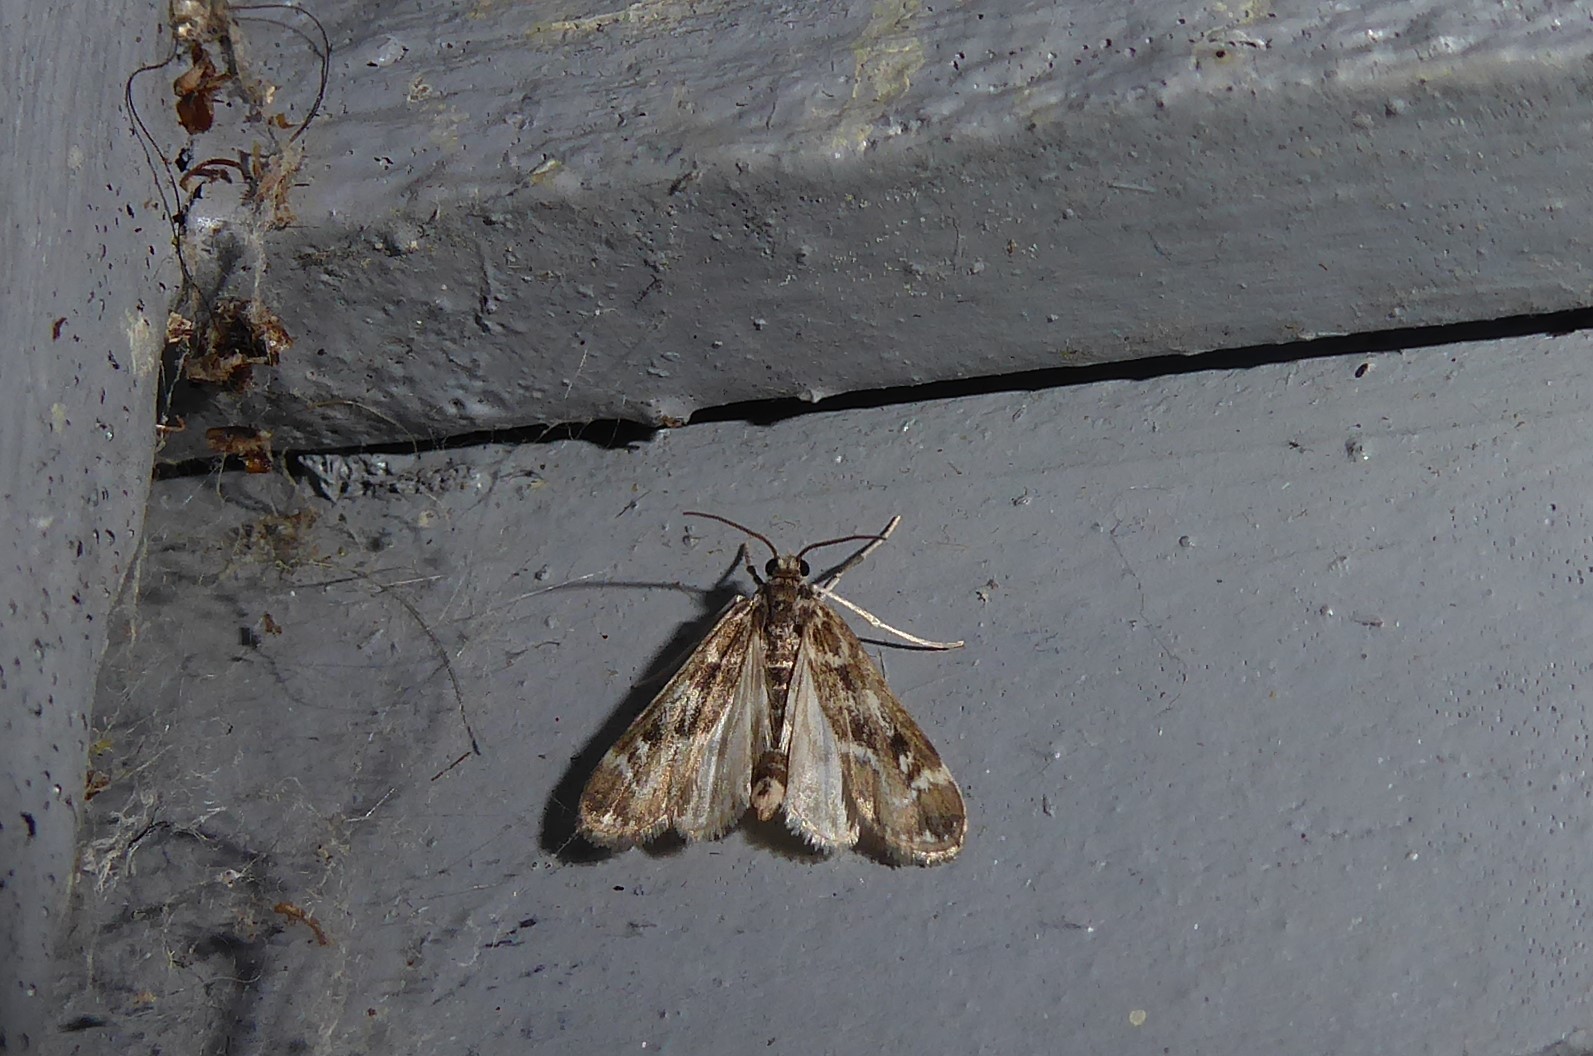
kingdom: Animalia
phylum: Arthropoda
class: Insecta
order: Lepidoptera
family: Crambidae
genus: Hygraula
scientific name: Hygraula nitens
